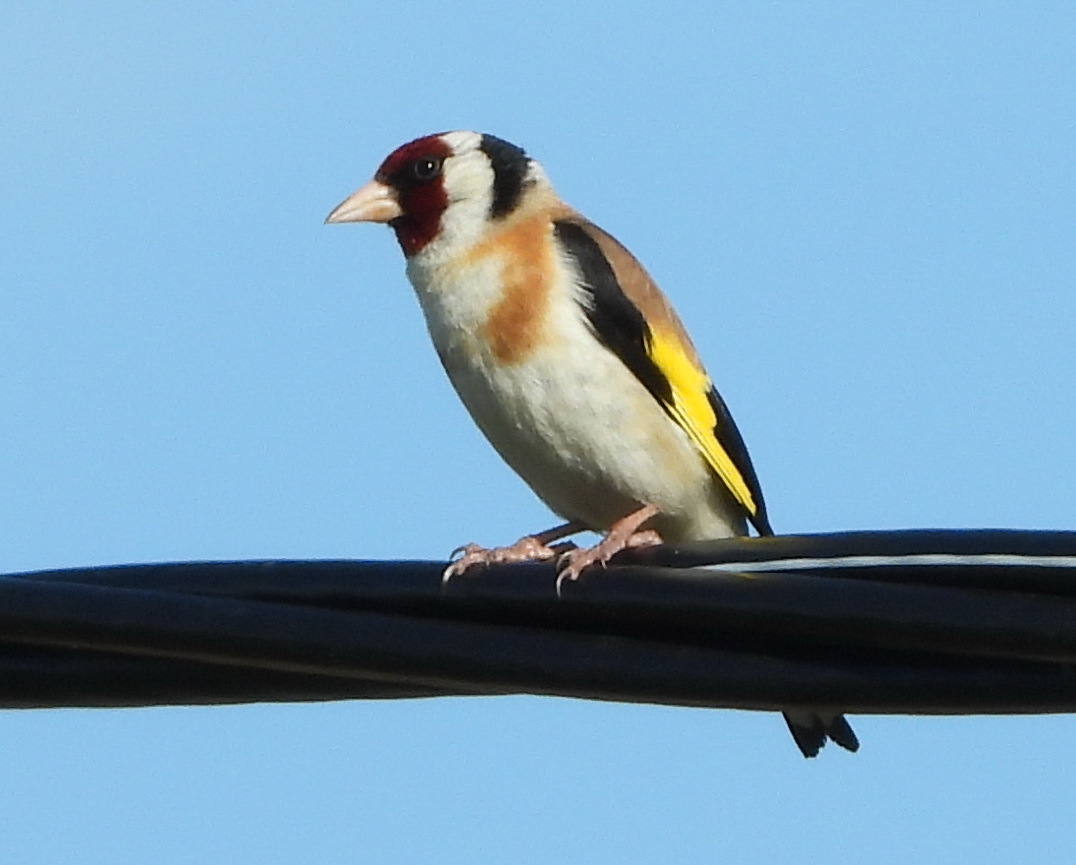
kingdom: Animalia
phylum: Chordata
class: Aves
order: Passeriformes
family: Fringillidae
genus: Carduelis
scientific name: Carduelis carduelis
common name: European goldfinch
